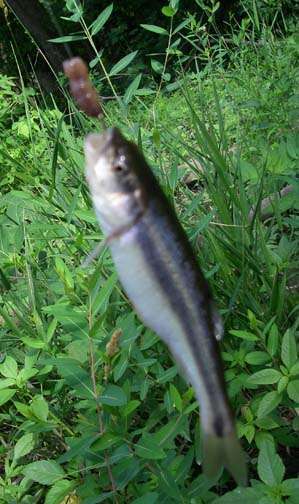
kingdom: Animalia
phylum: Chordata
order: Cypriniformes
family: Cyprinidae
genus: Semotilus
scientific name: Semotilus atromaculatus
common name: Creek chub
